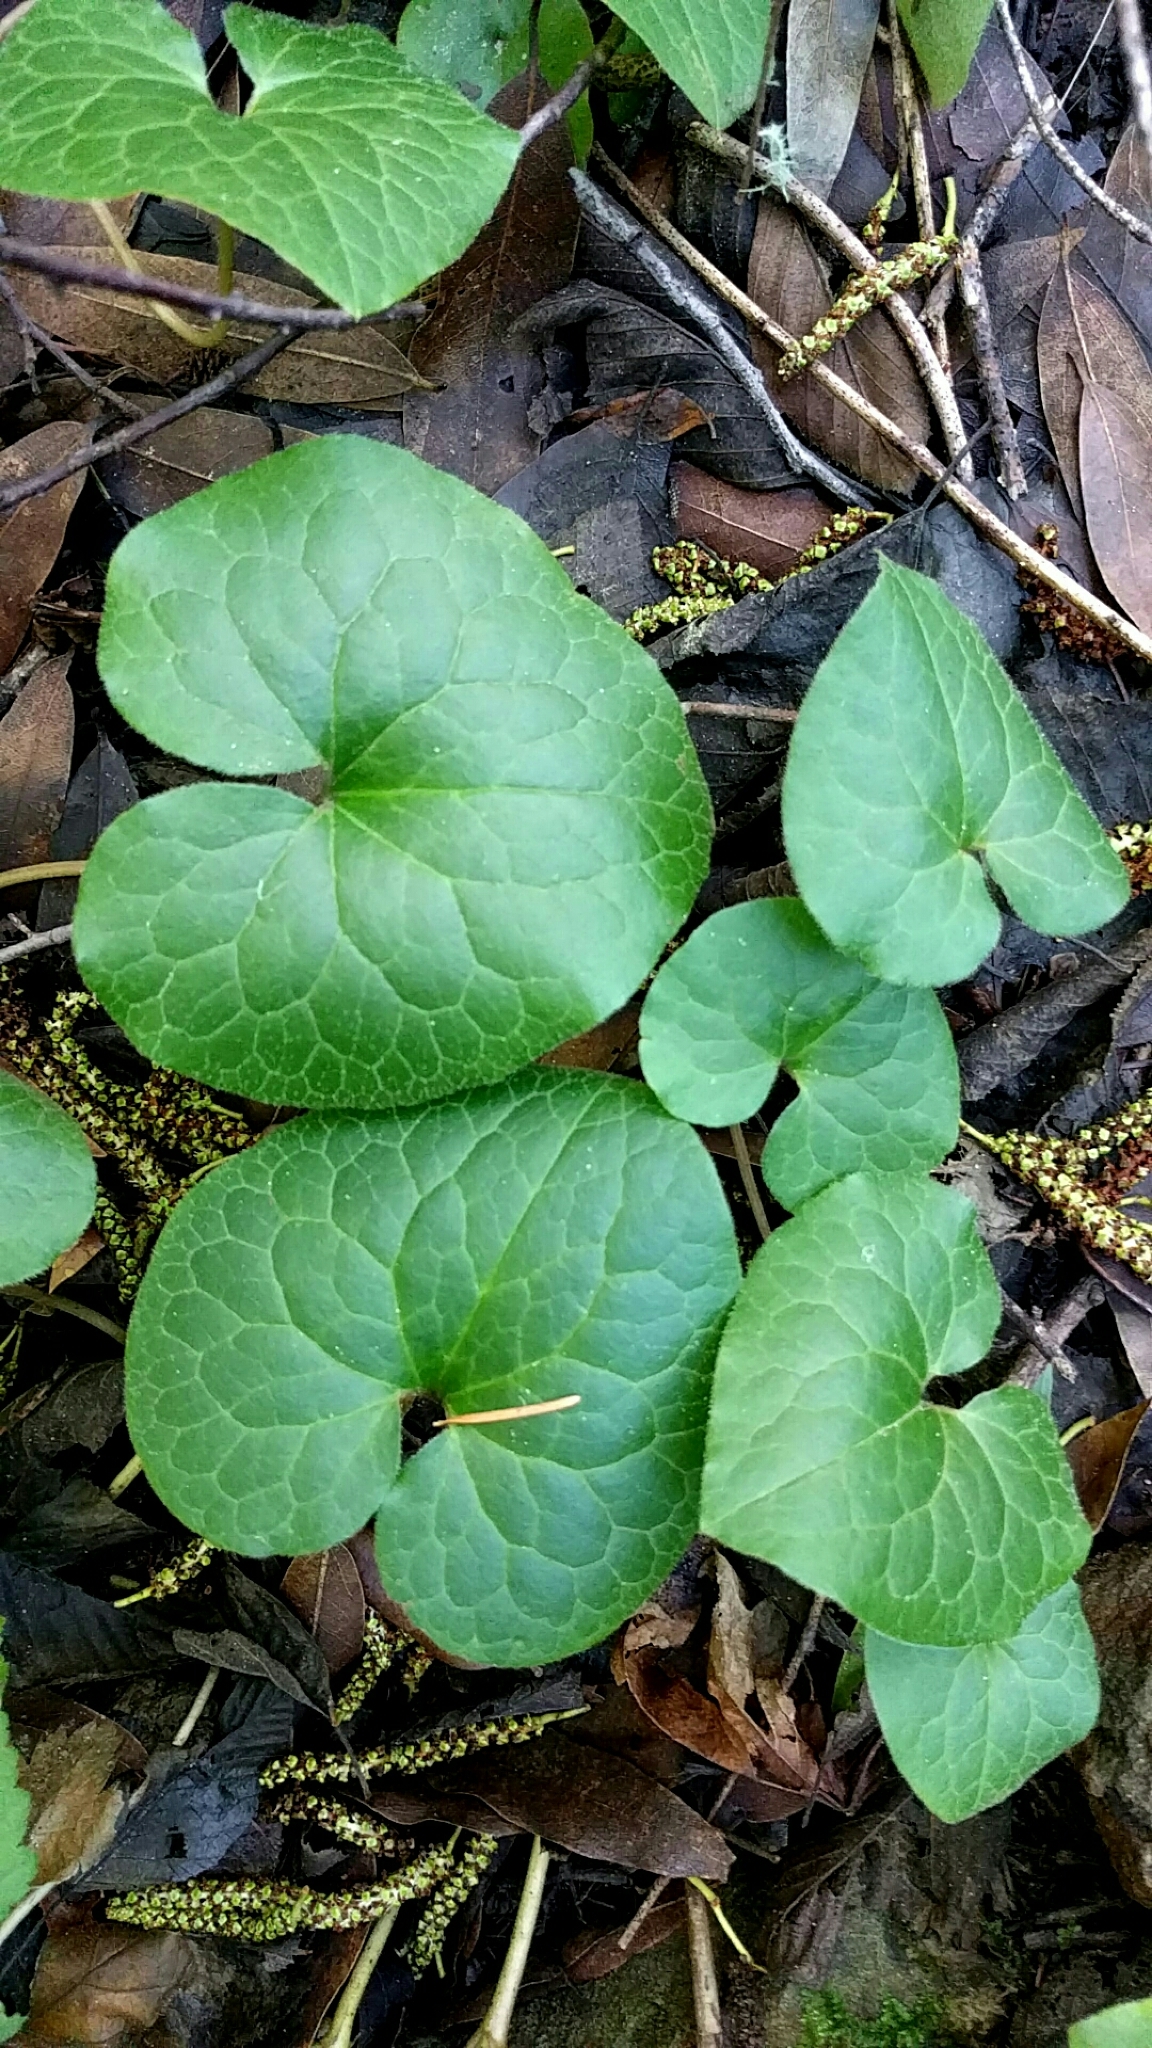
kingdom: Plantae
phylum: Tracheophyta
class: Magnoliopsida
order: Piperales
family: Aristolochiaceae
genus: Asarum
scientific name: Asarum caudatum
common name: Wild ginger
